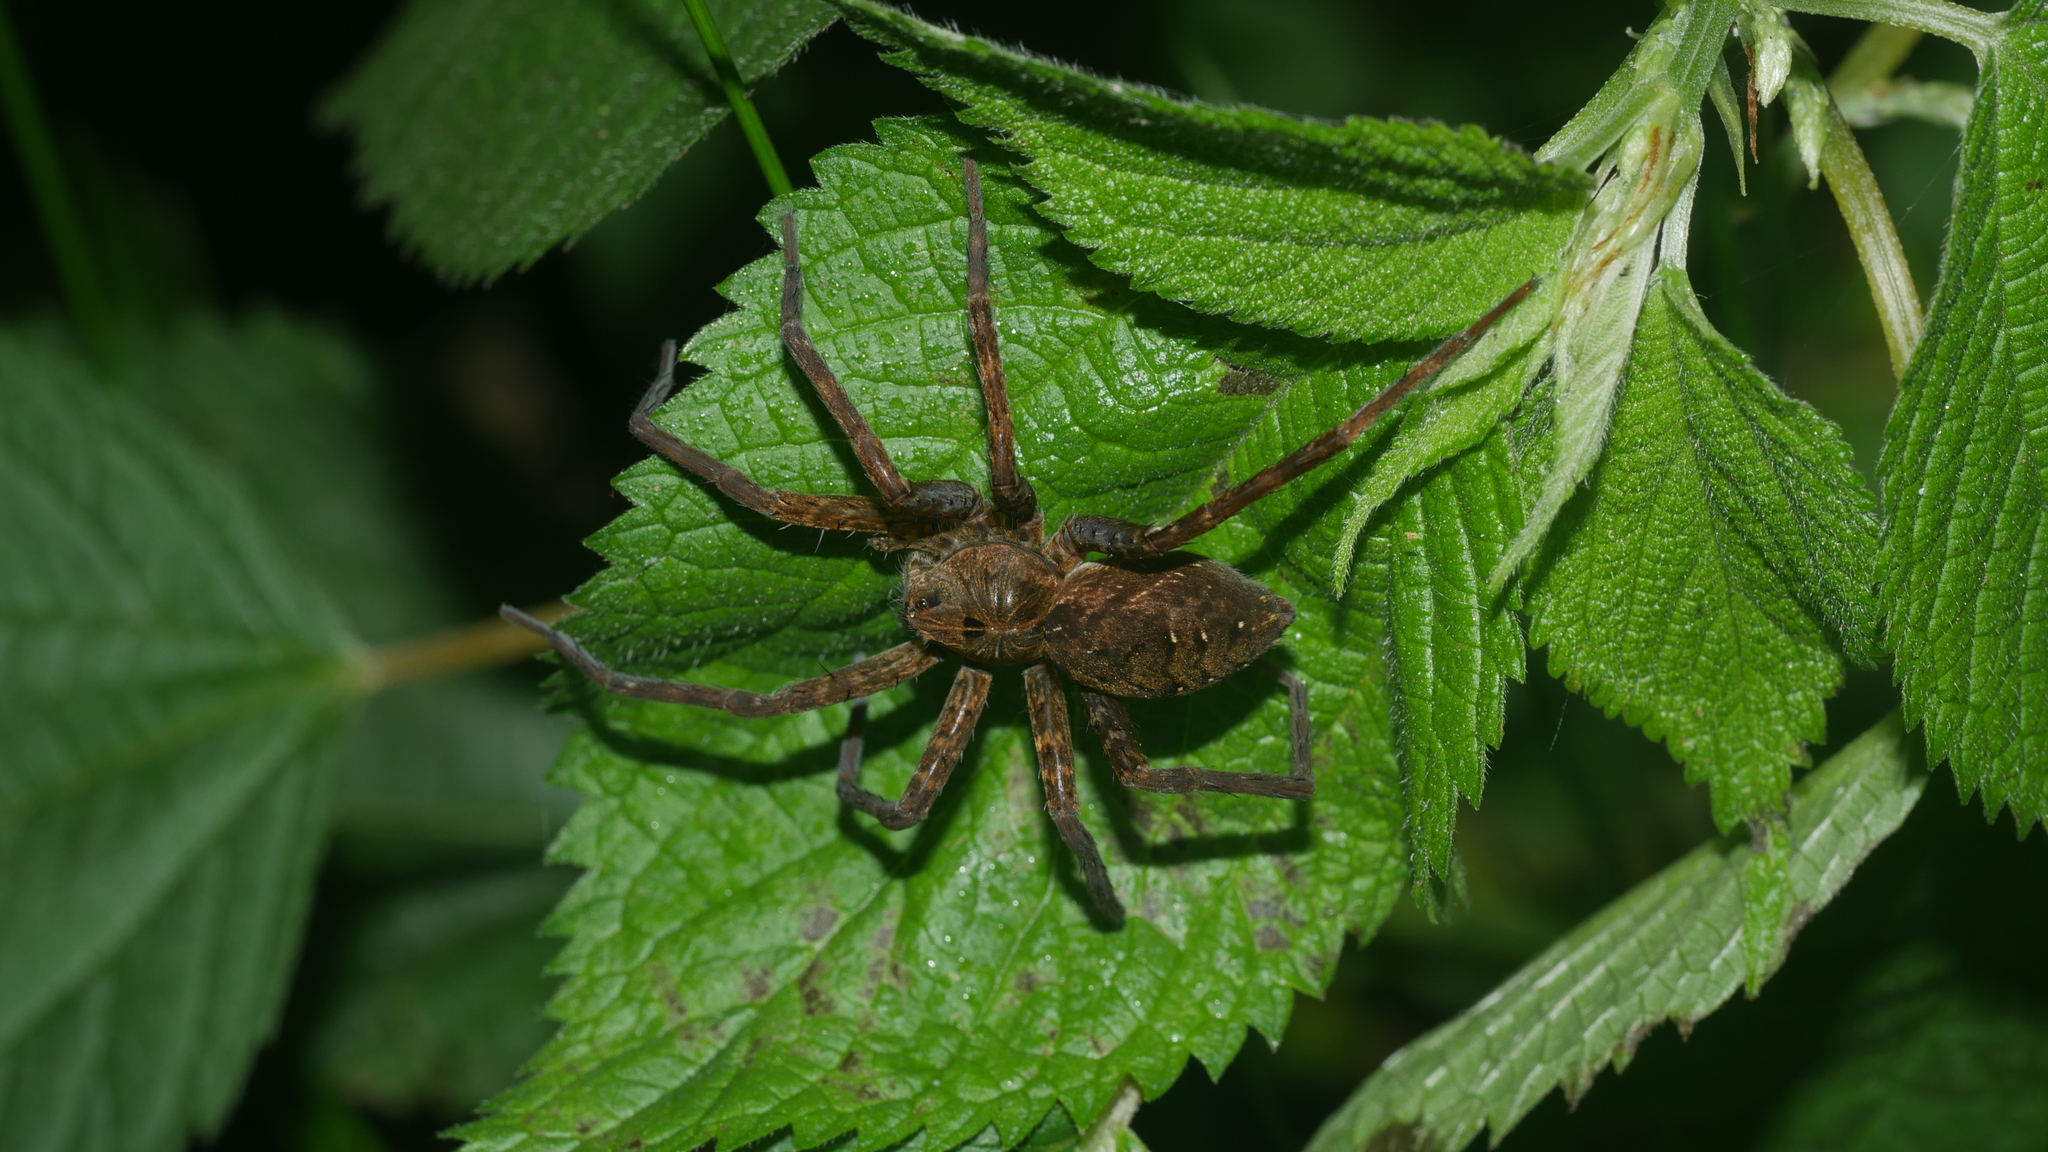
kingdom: Animalia
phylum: Arthropoda
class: Arachnida
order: Araneae
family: Pisauridae
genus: Dolomedes
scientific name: Dolomedes vittatus
